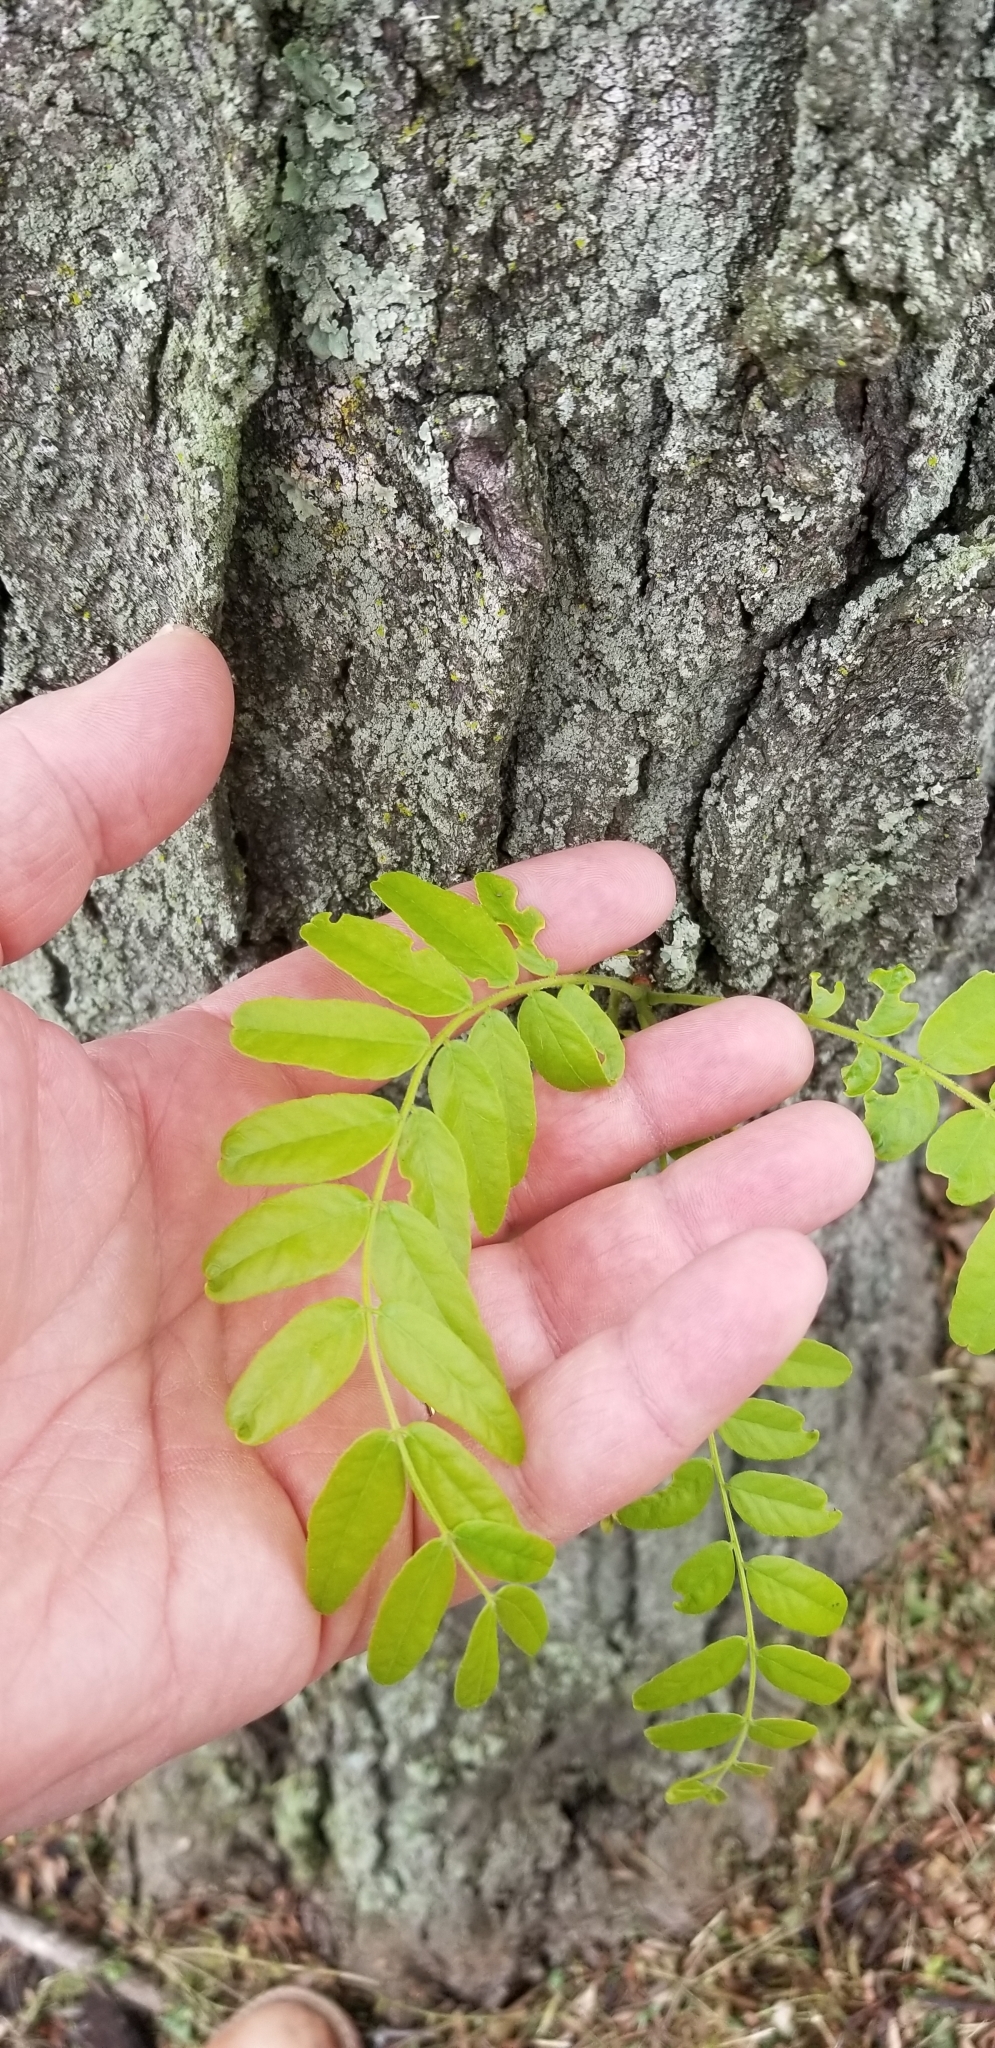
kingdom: Plantae
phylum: Tracheophyta
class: Magnoliopsida
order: Fabales
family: Fabaceae
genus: Gleditsia
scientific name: Gleditsia triacanthos
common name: Common honeylocust
